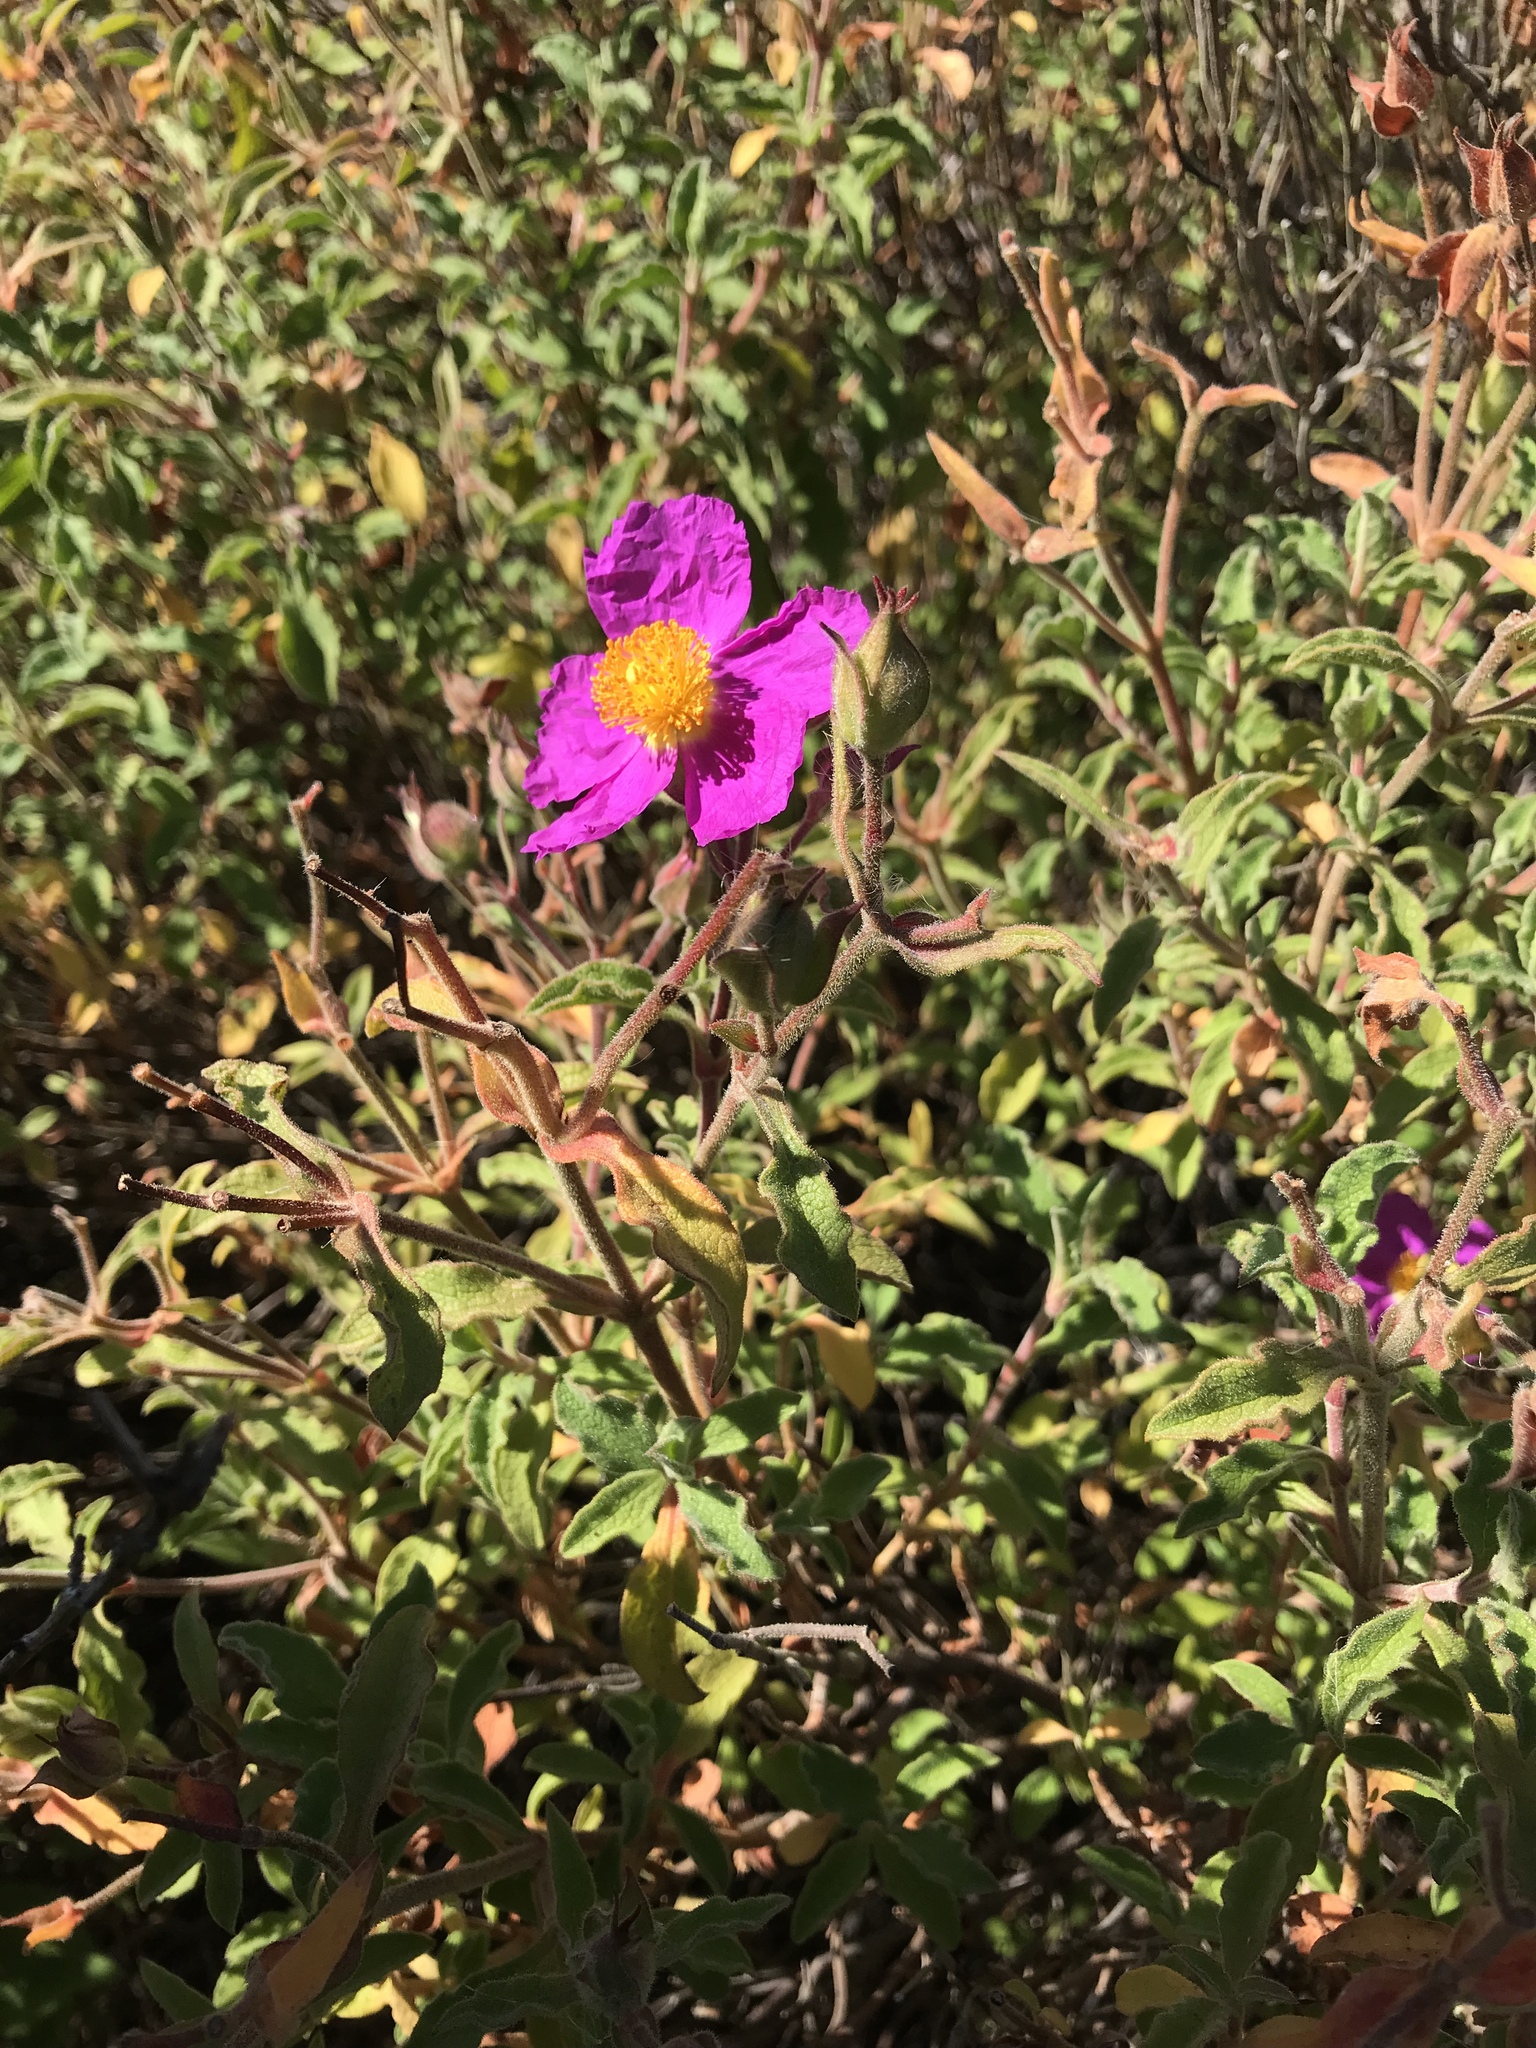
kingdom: Plantae
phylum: Tracheophyta
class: Magnoliopsida
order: Malvales
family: Cistaceae
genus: Cistus
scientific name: Cistus creticus
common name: Cretan rockrose
